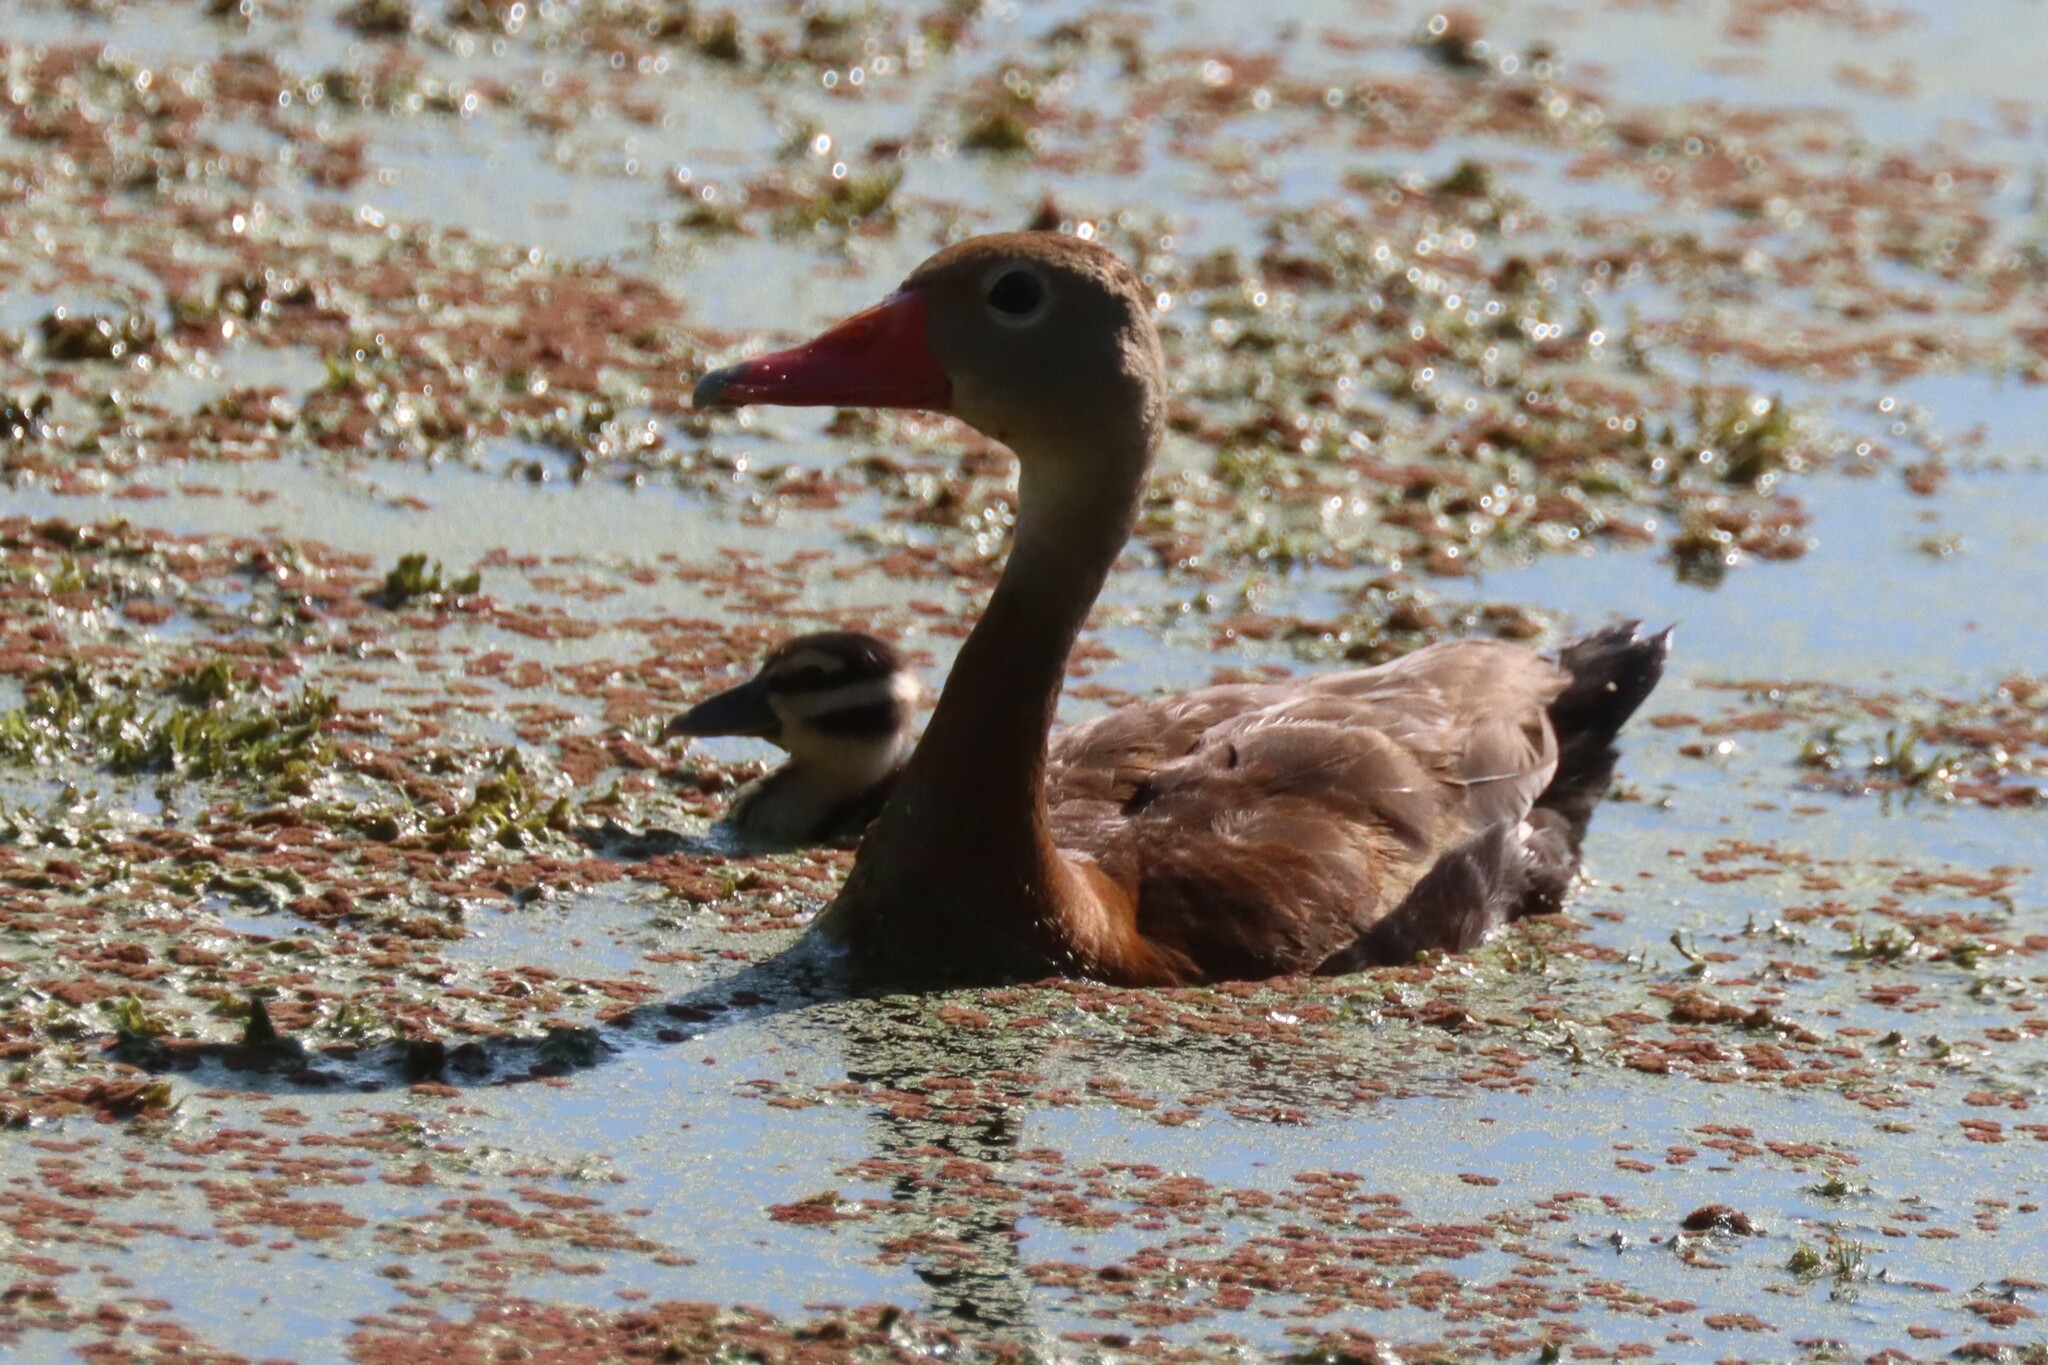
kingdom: Animalia
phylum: Chordata
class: Aves
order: Anseriformes
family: Anatidae
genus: Dendrocygna
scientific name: Dendrocygna autumnalis
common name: Black-bellied whistling duck
